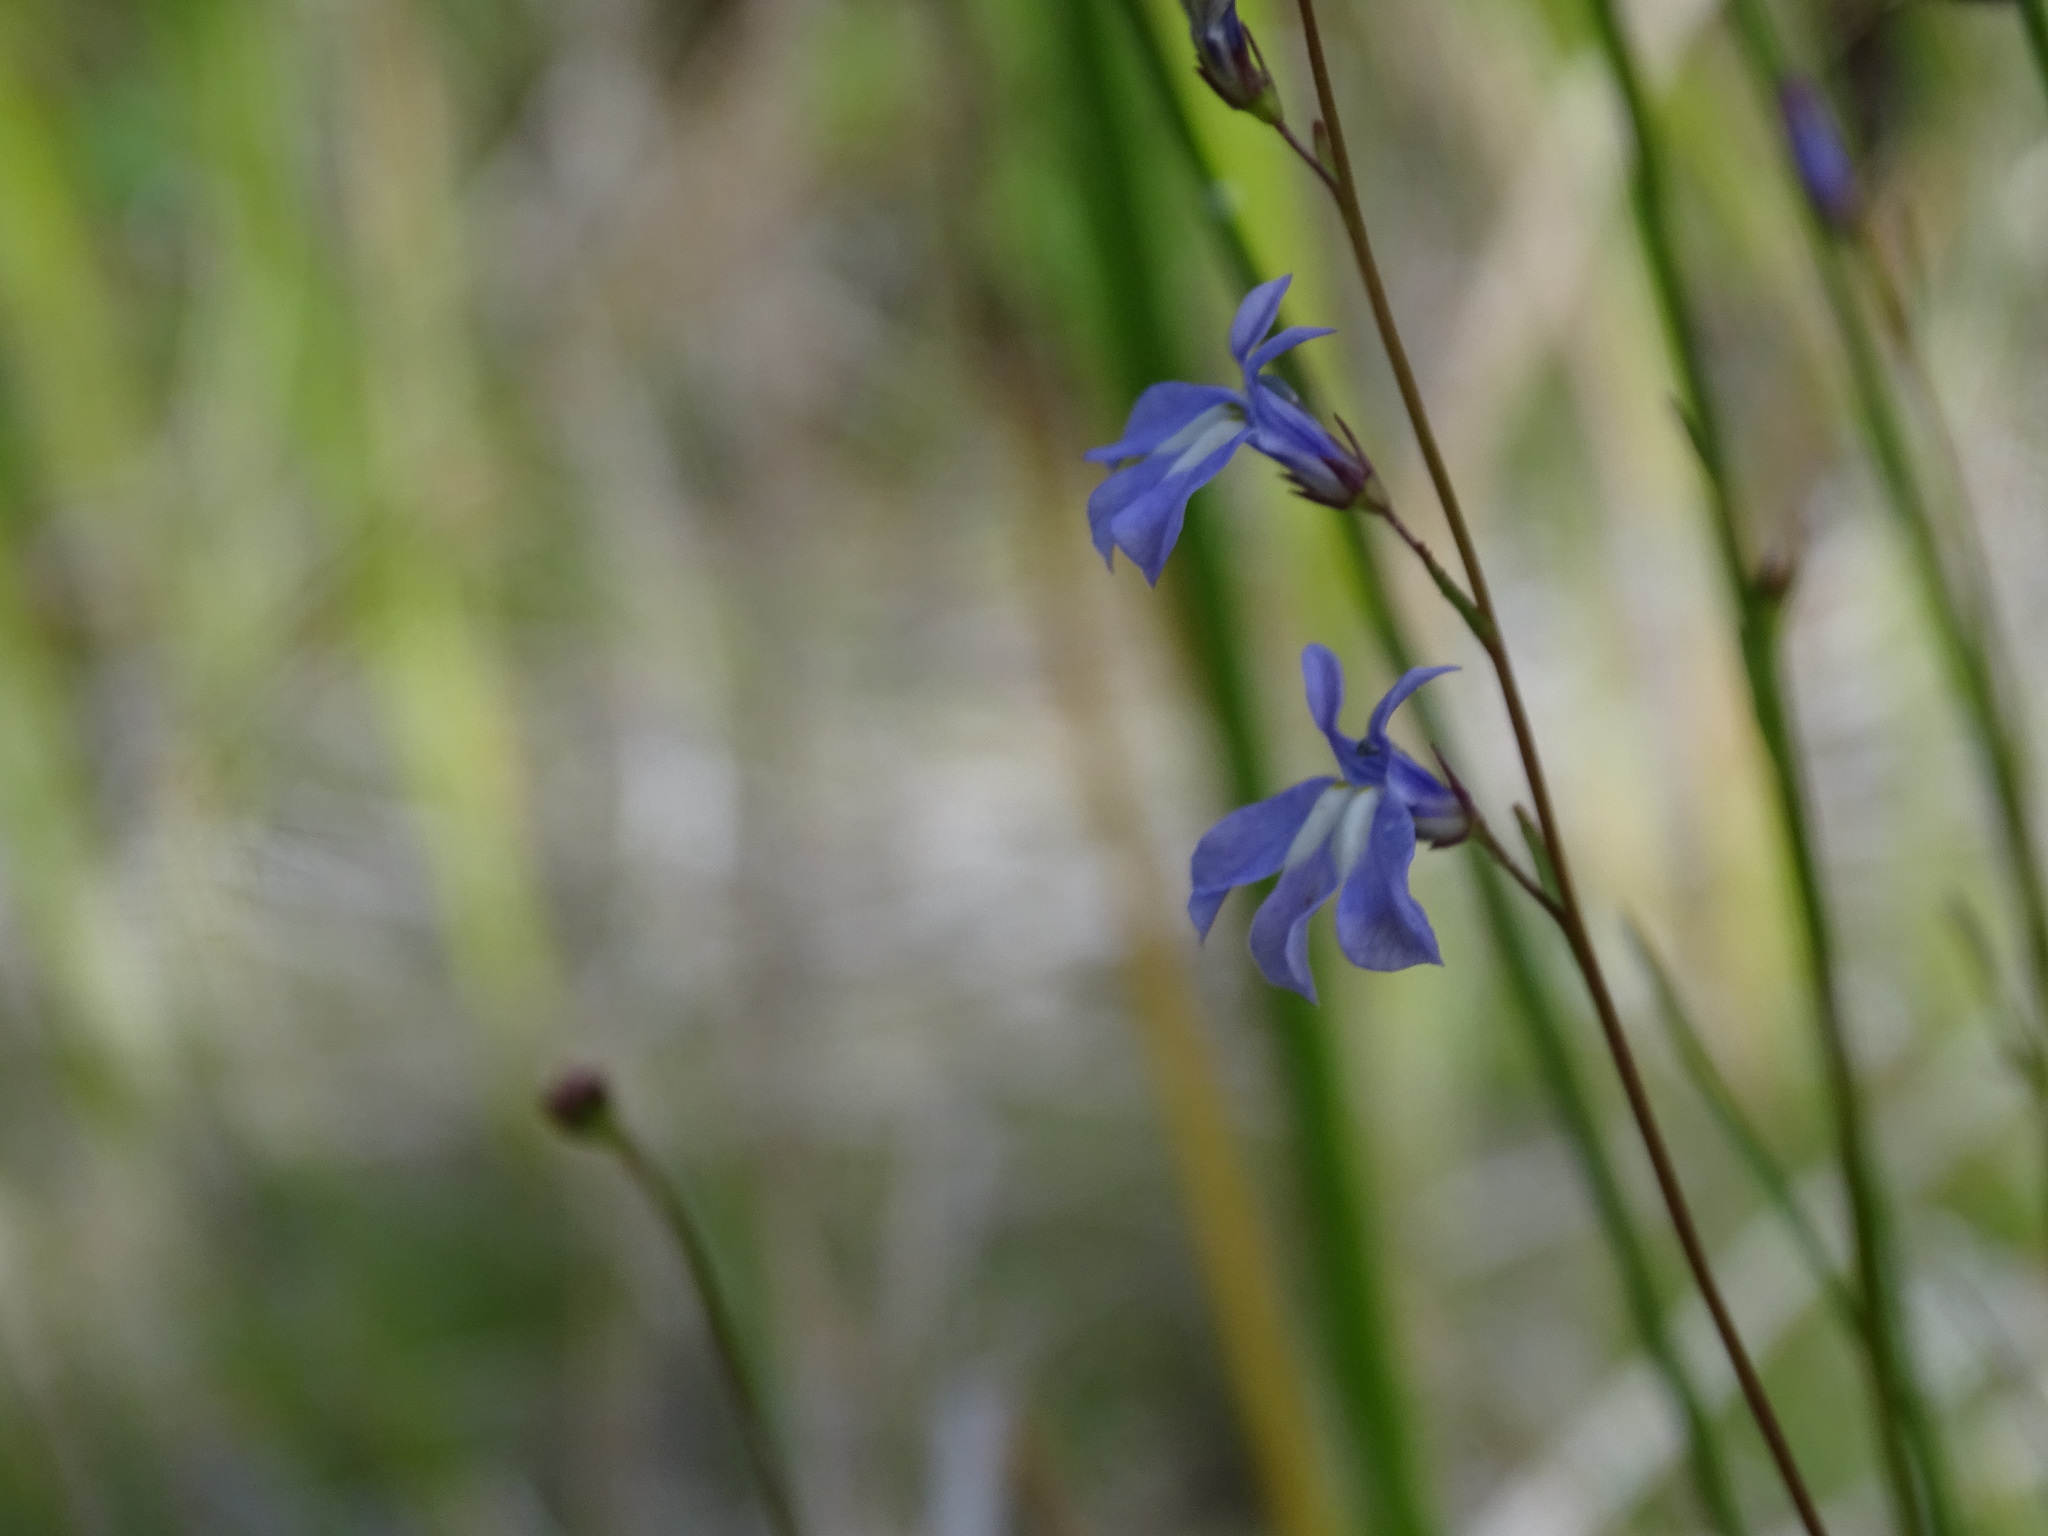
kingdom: Plantae
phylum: Tracheophyta
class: Magnoliopsida
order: Asterales
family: Campanulaceae
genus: Lobelia
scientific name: Lobelia kalmii
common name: Kalm's lobelia
